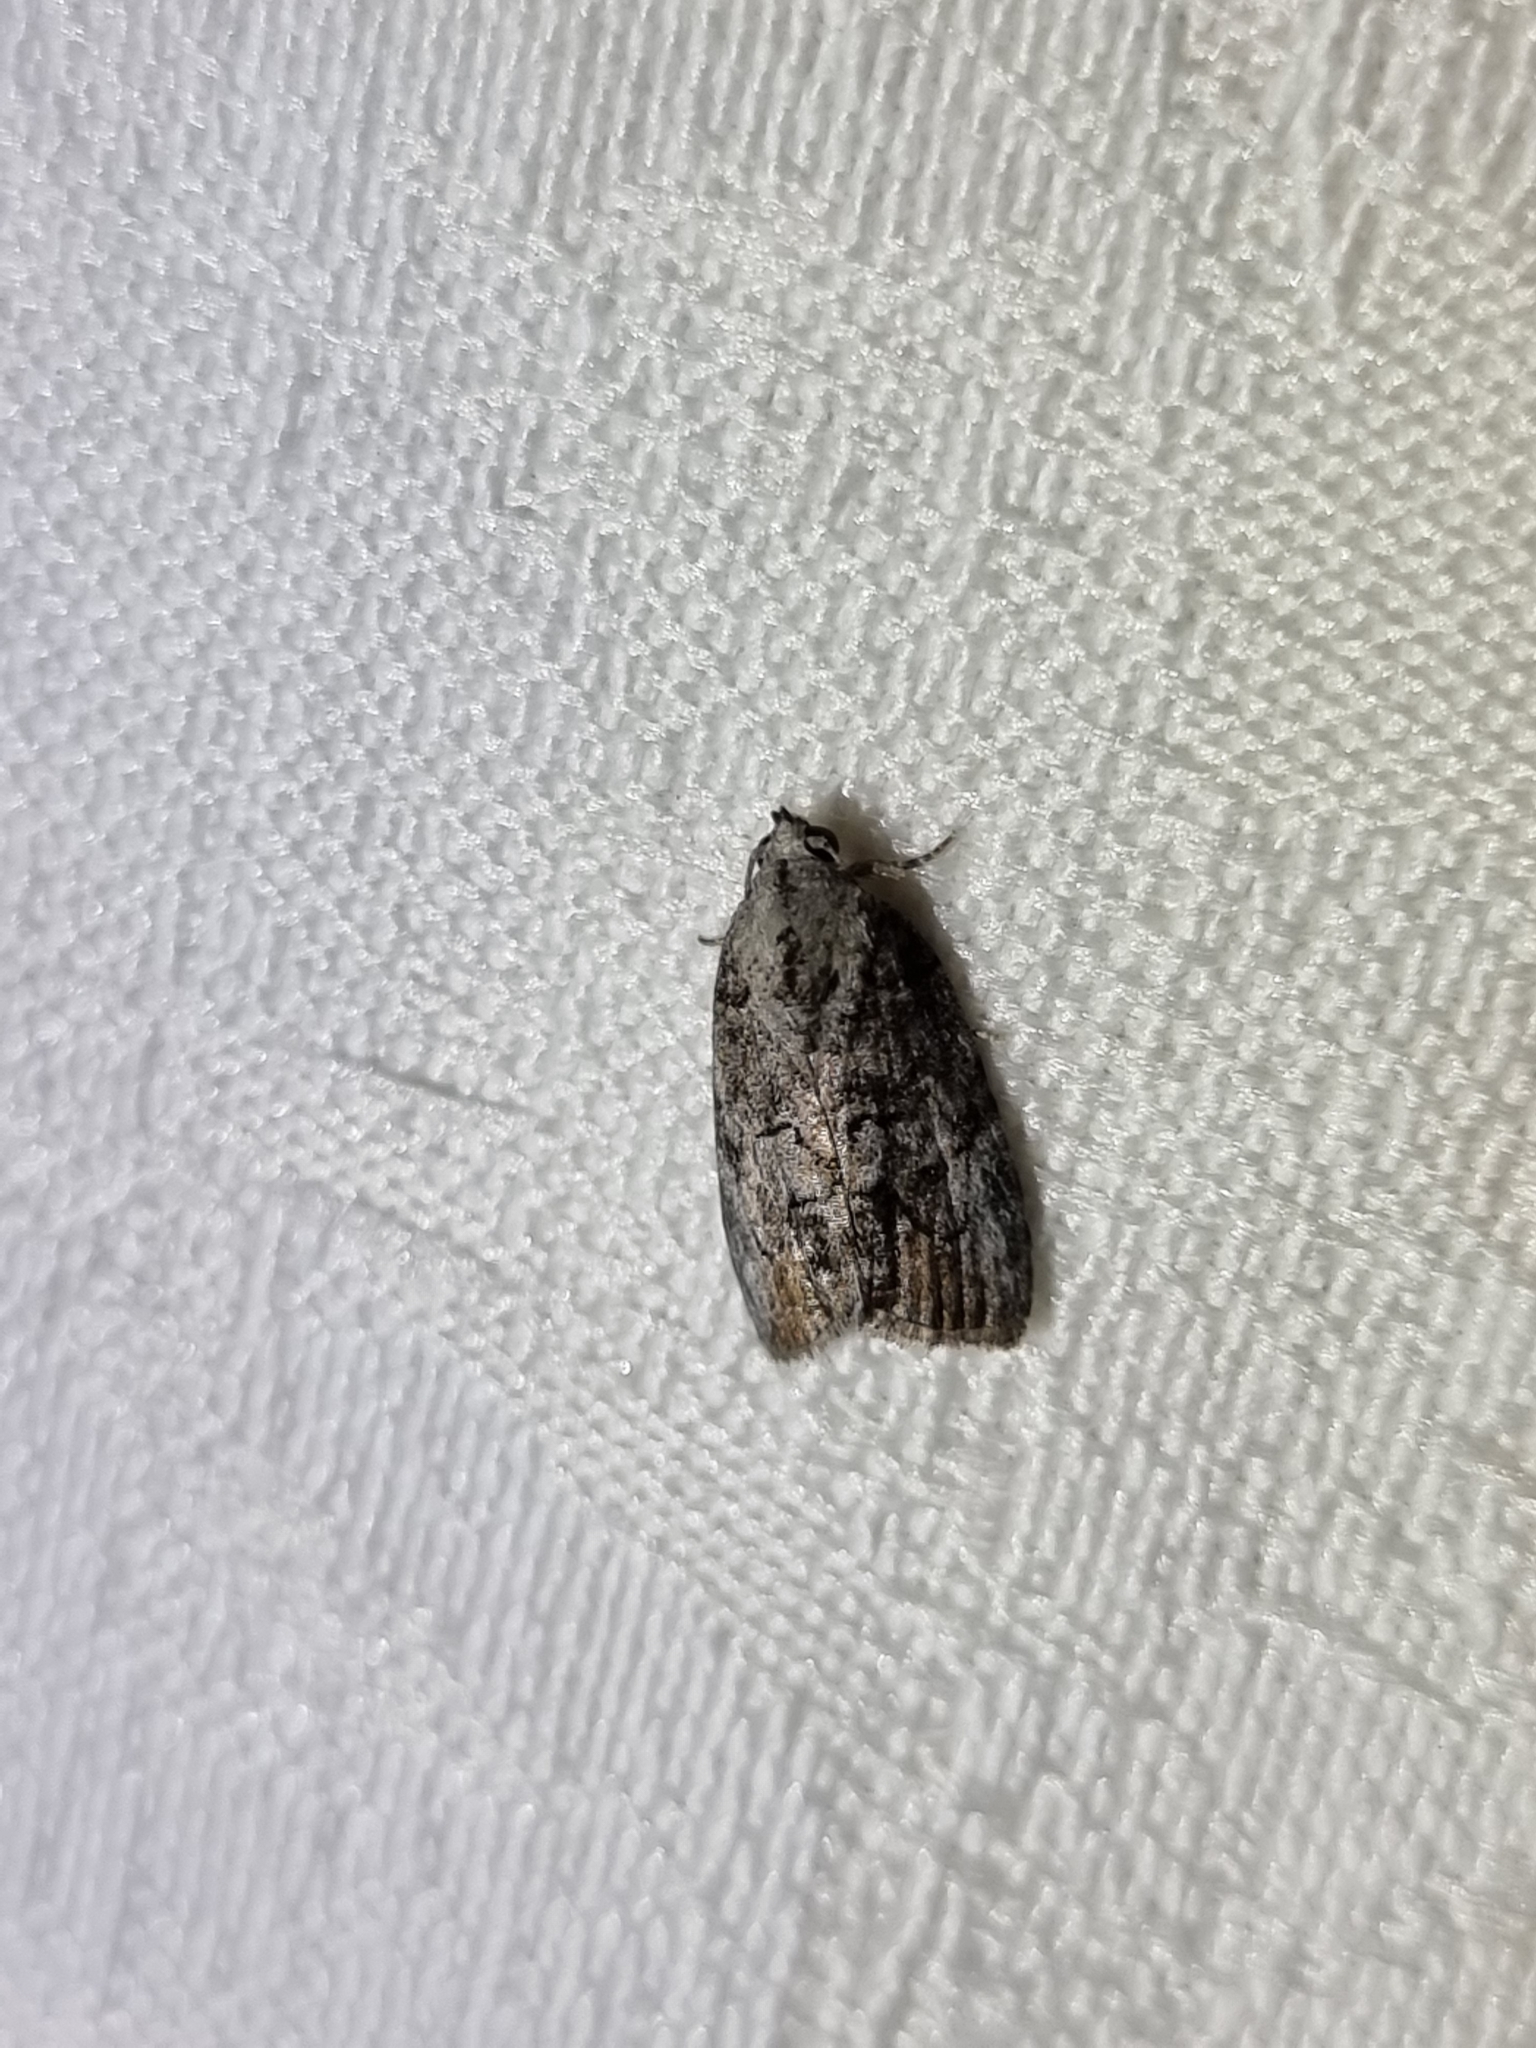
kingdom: Animalia
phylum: Arthropoda
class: Insecta
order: Lepidoptera
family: Nolidae
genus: Etanna
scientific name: Etanna clopaea
